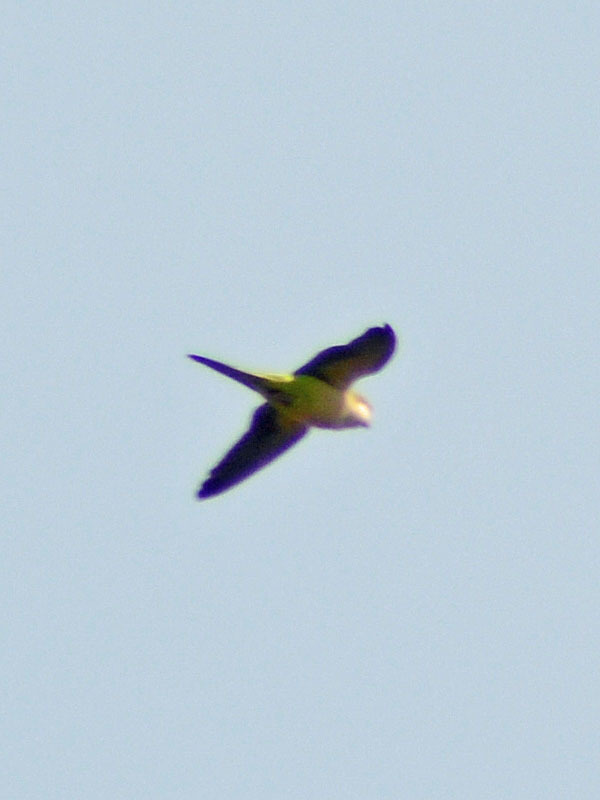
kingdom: Animalia
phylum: Chordata
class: Aves
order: Psittaciformes
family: Psittacidae
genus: Myiopsitta
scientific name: Myiopsitta monachus
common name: Monk parakeet
